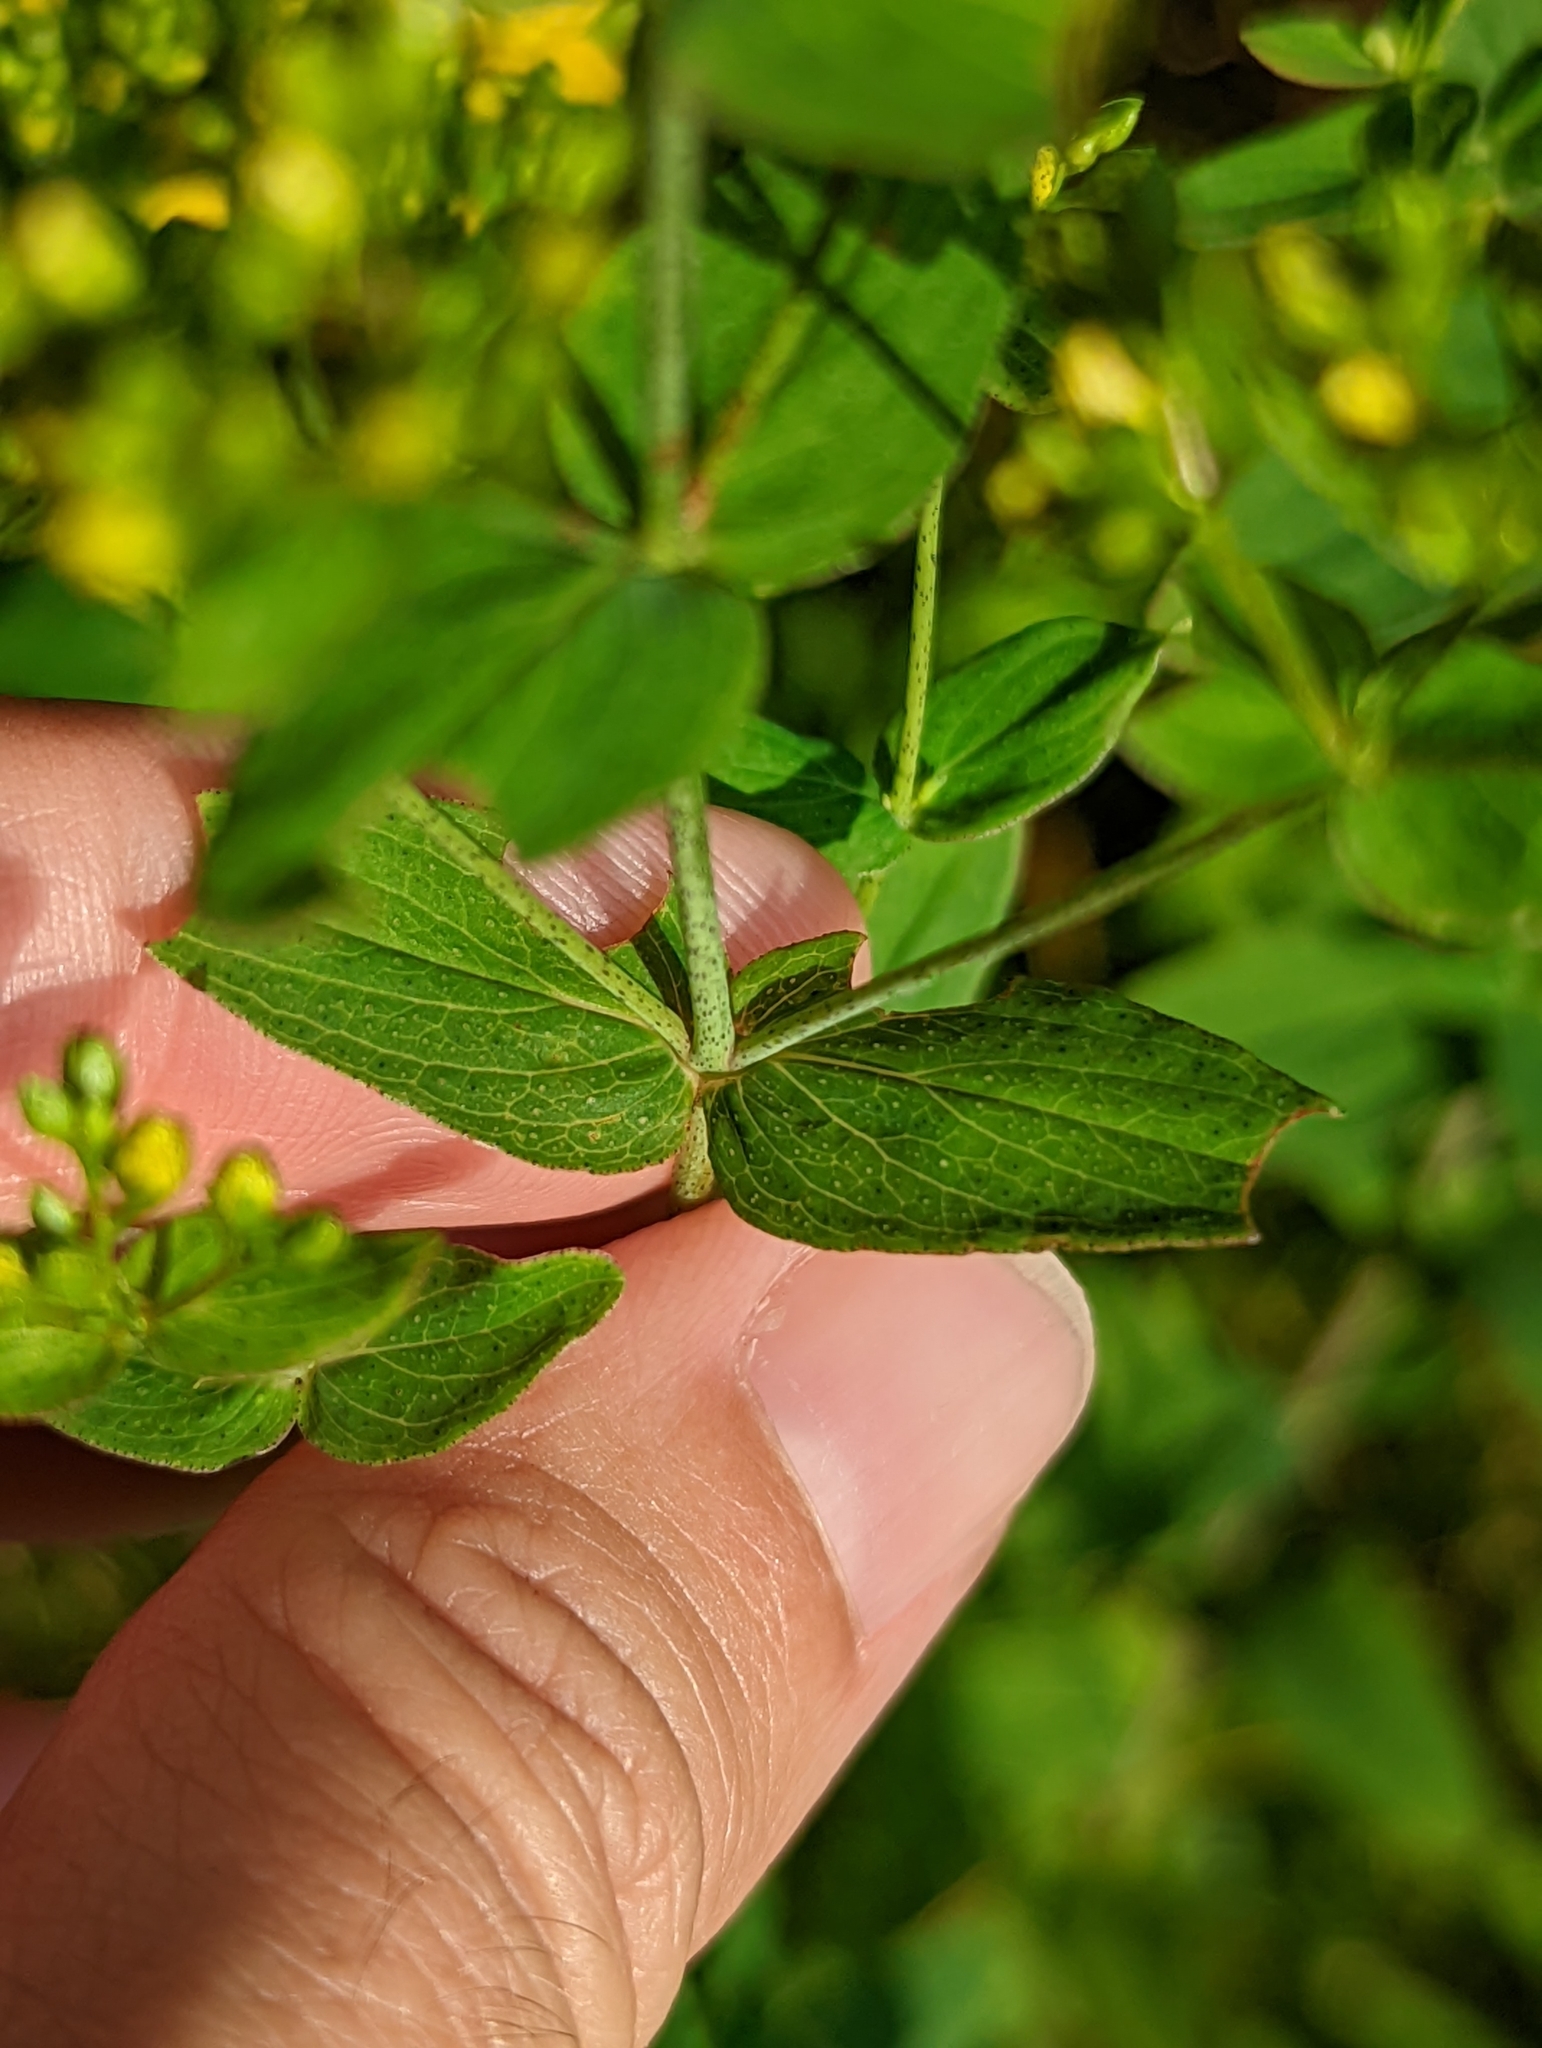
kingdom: Plantae
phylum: Tracheophyta
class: Magnoliopsida
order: Malpighiales
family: Hypericaceae
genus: Hypericum
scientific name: Hypericum punctatum
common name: Spotted st. john's-wort
